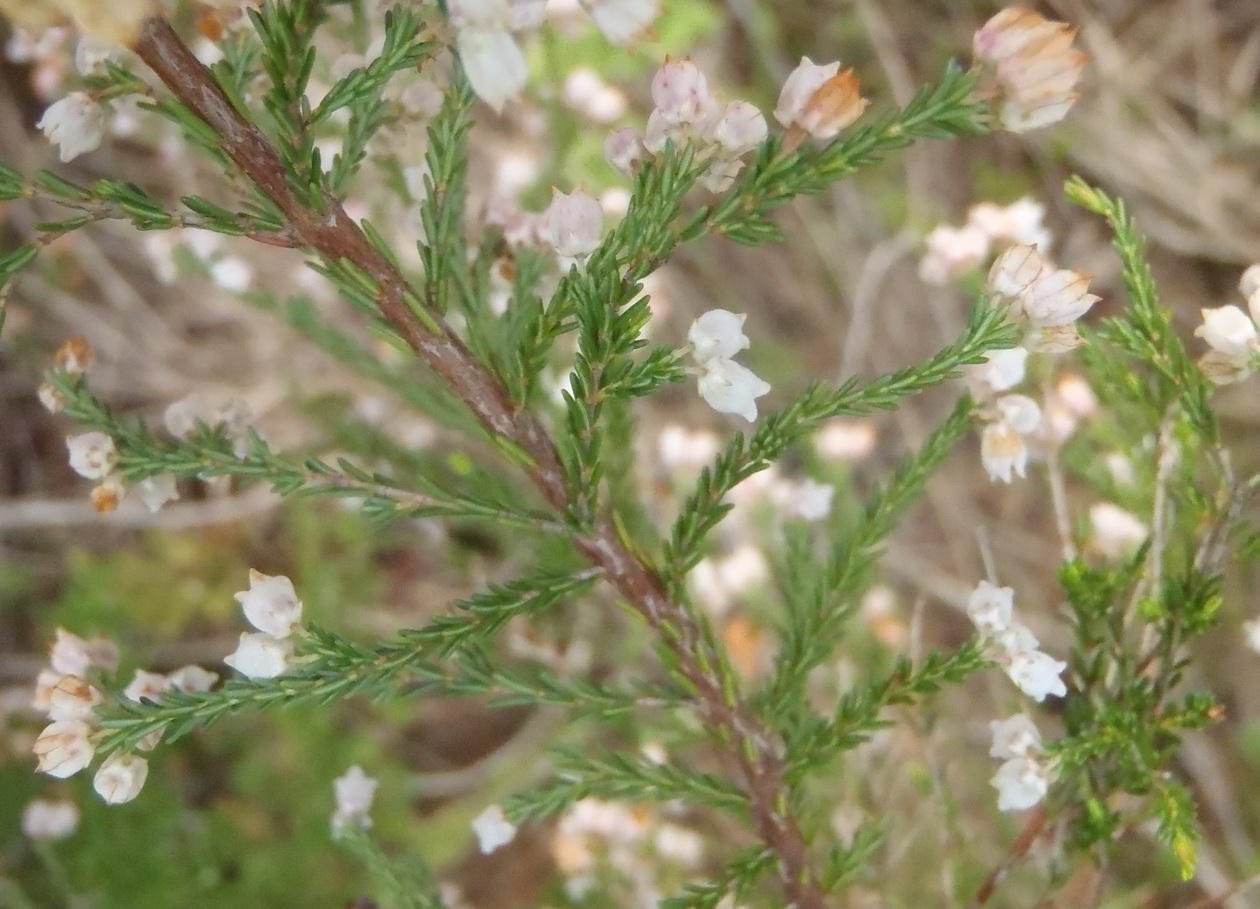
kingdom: Plantae
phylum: Tracheophyta
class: Magnoliopsida
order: Ericales
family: Ericaceae
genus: Erica
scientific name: Erica quadrangularis
